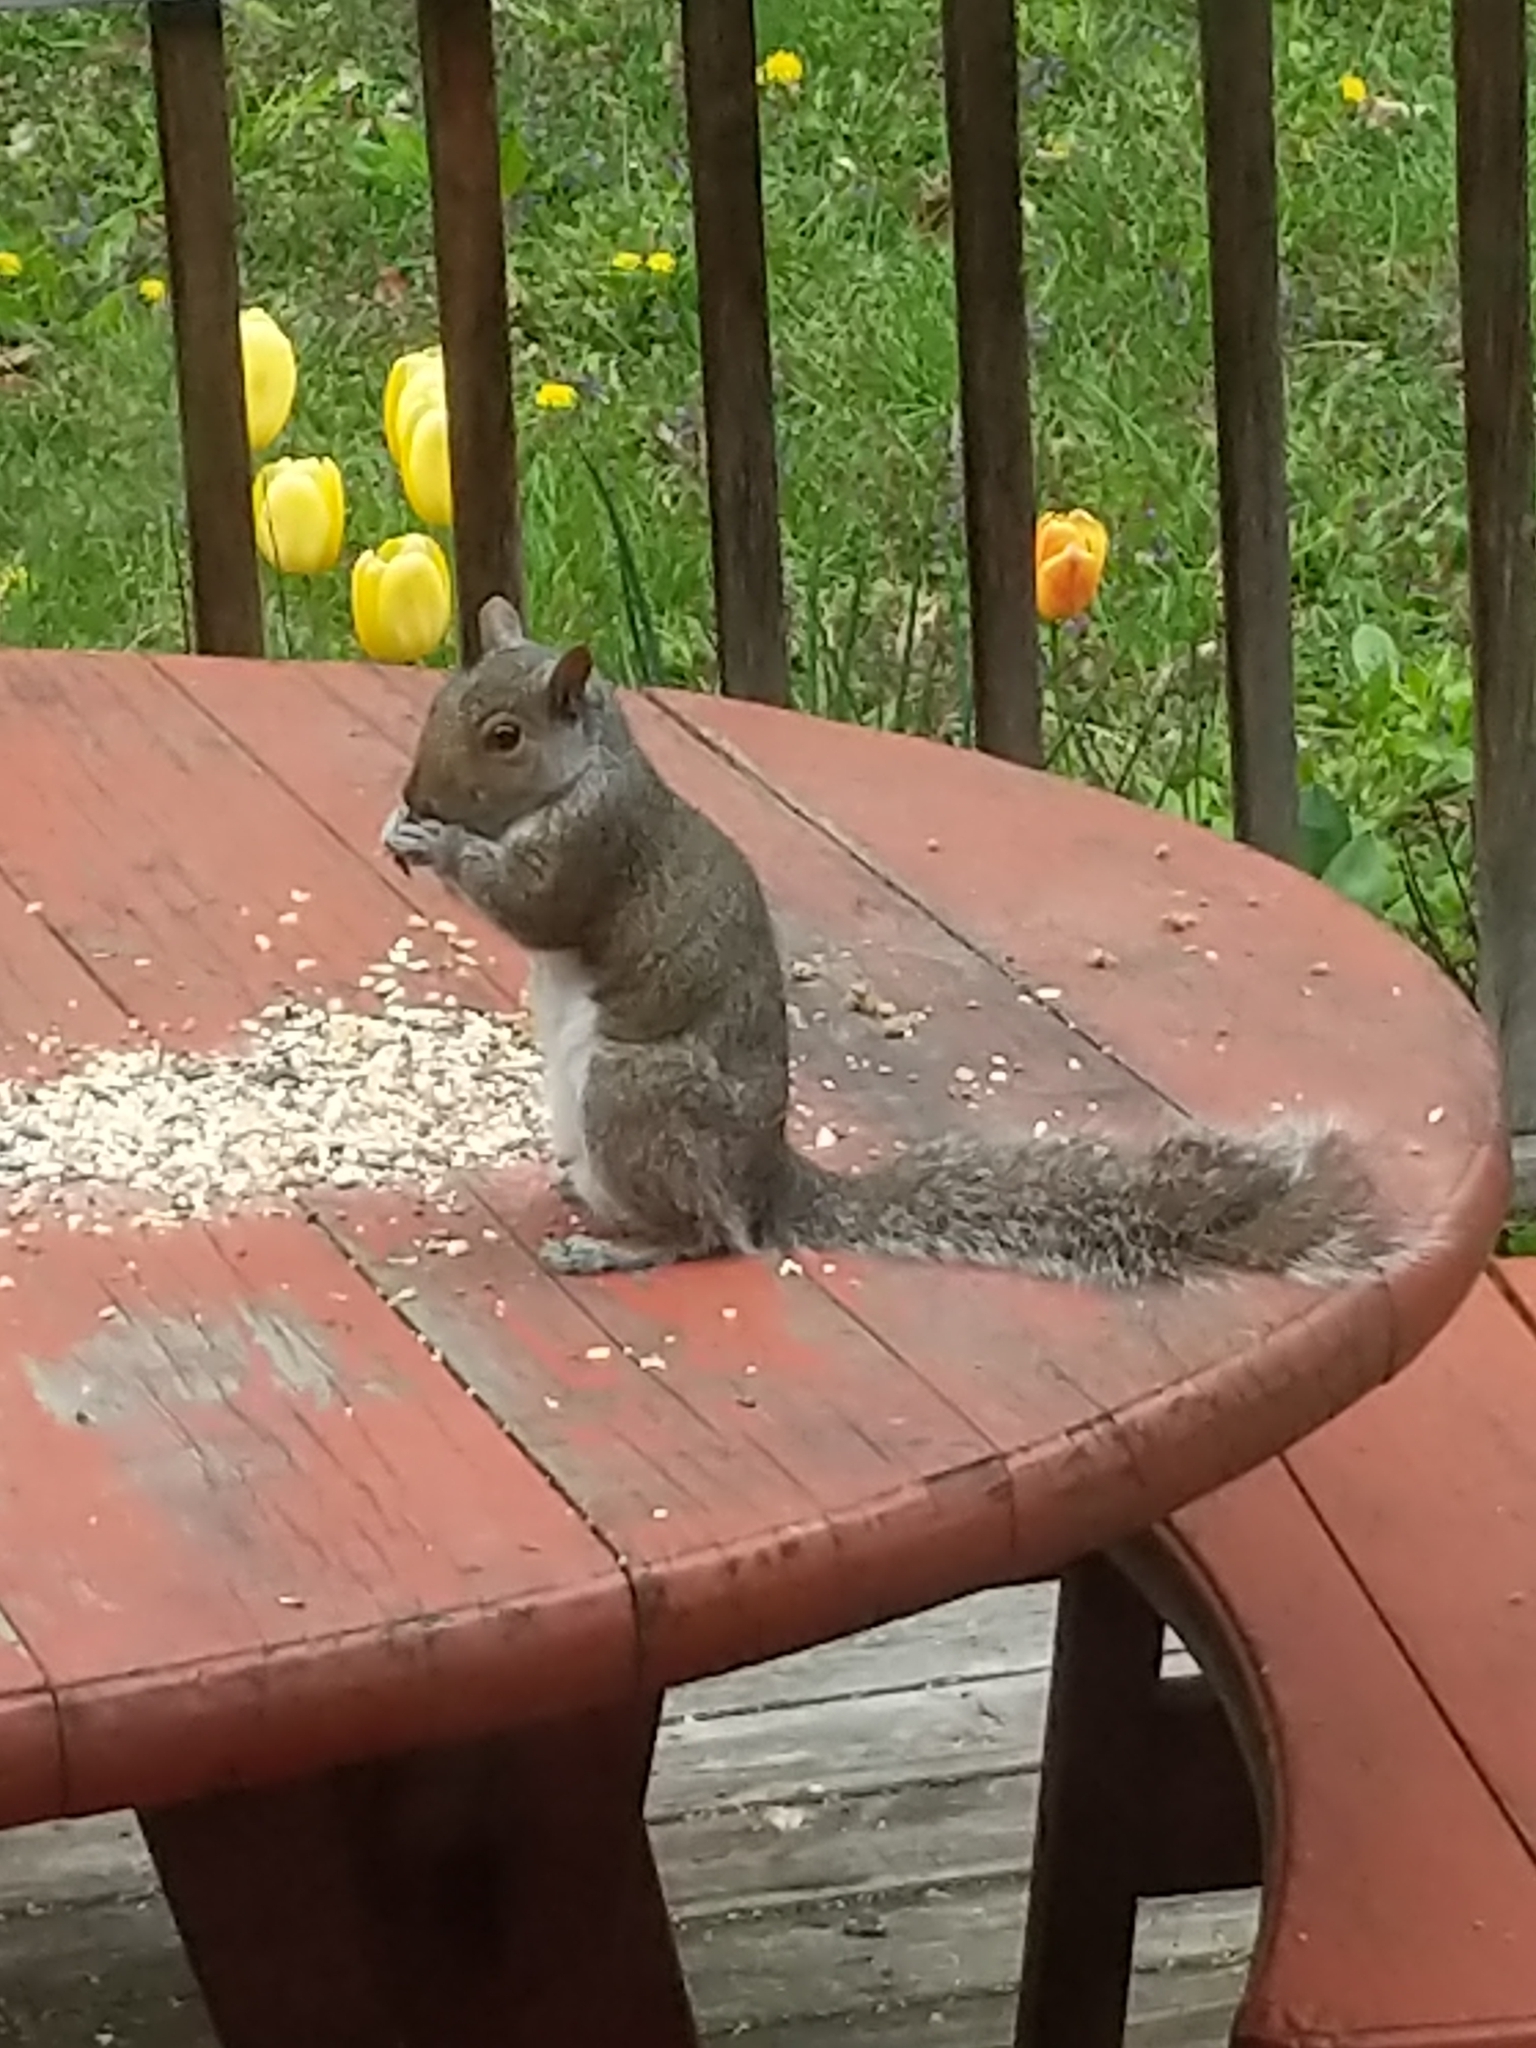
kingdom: Animalia
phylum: Chordata
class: Mammalia
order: Rodentia
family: Sciuridae
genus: Sciurus
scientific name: Sciurus carolinensis
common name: Eastern gray squirrel
